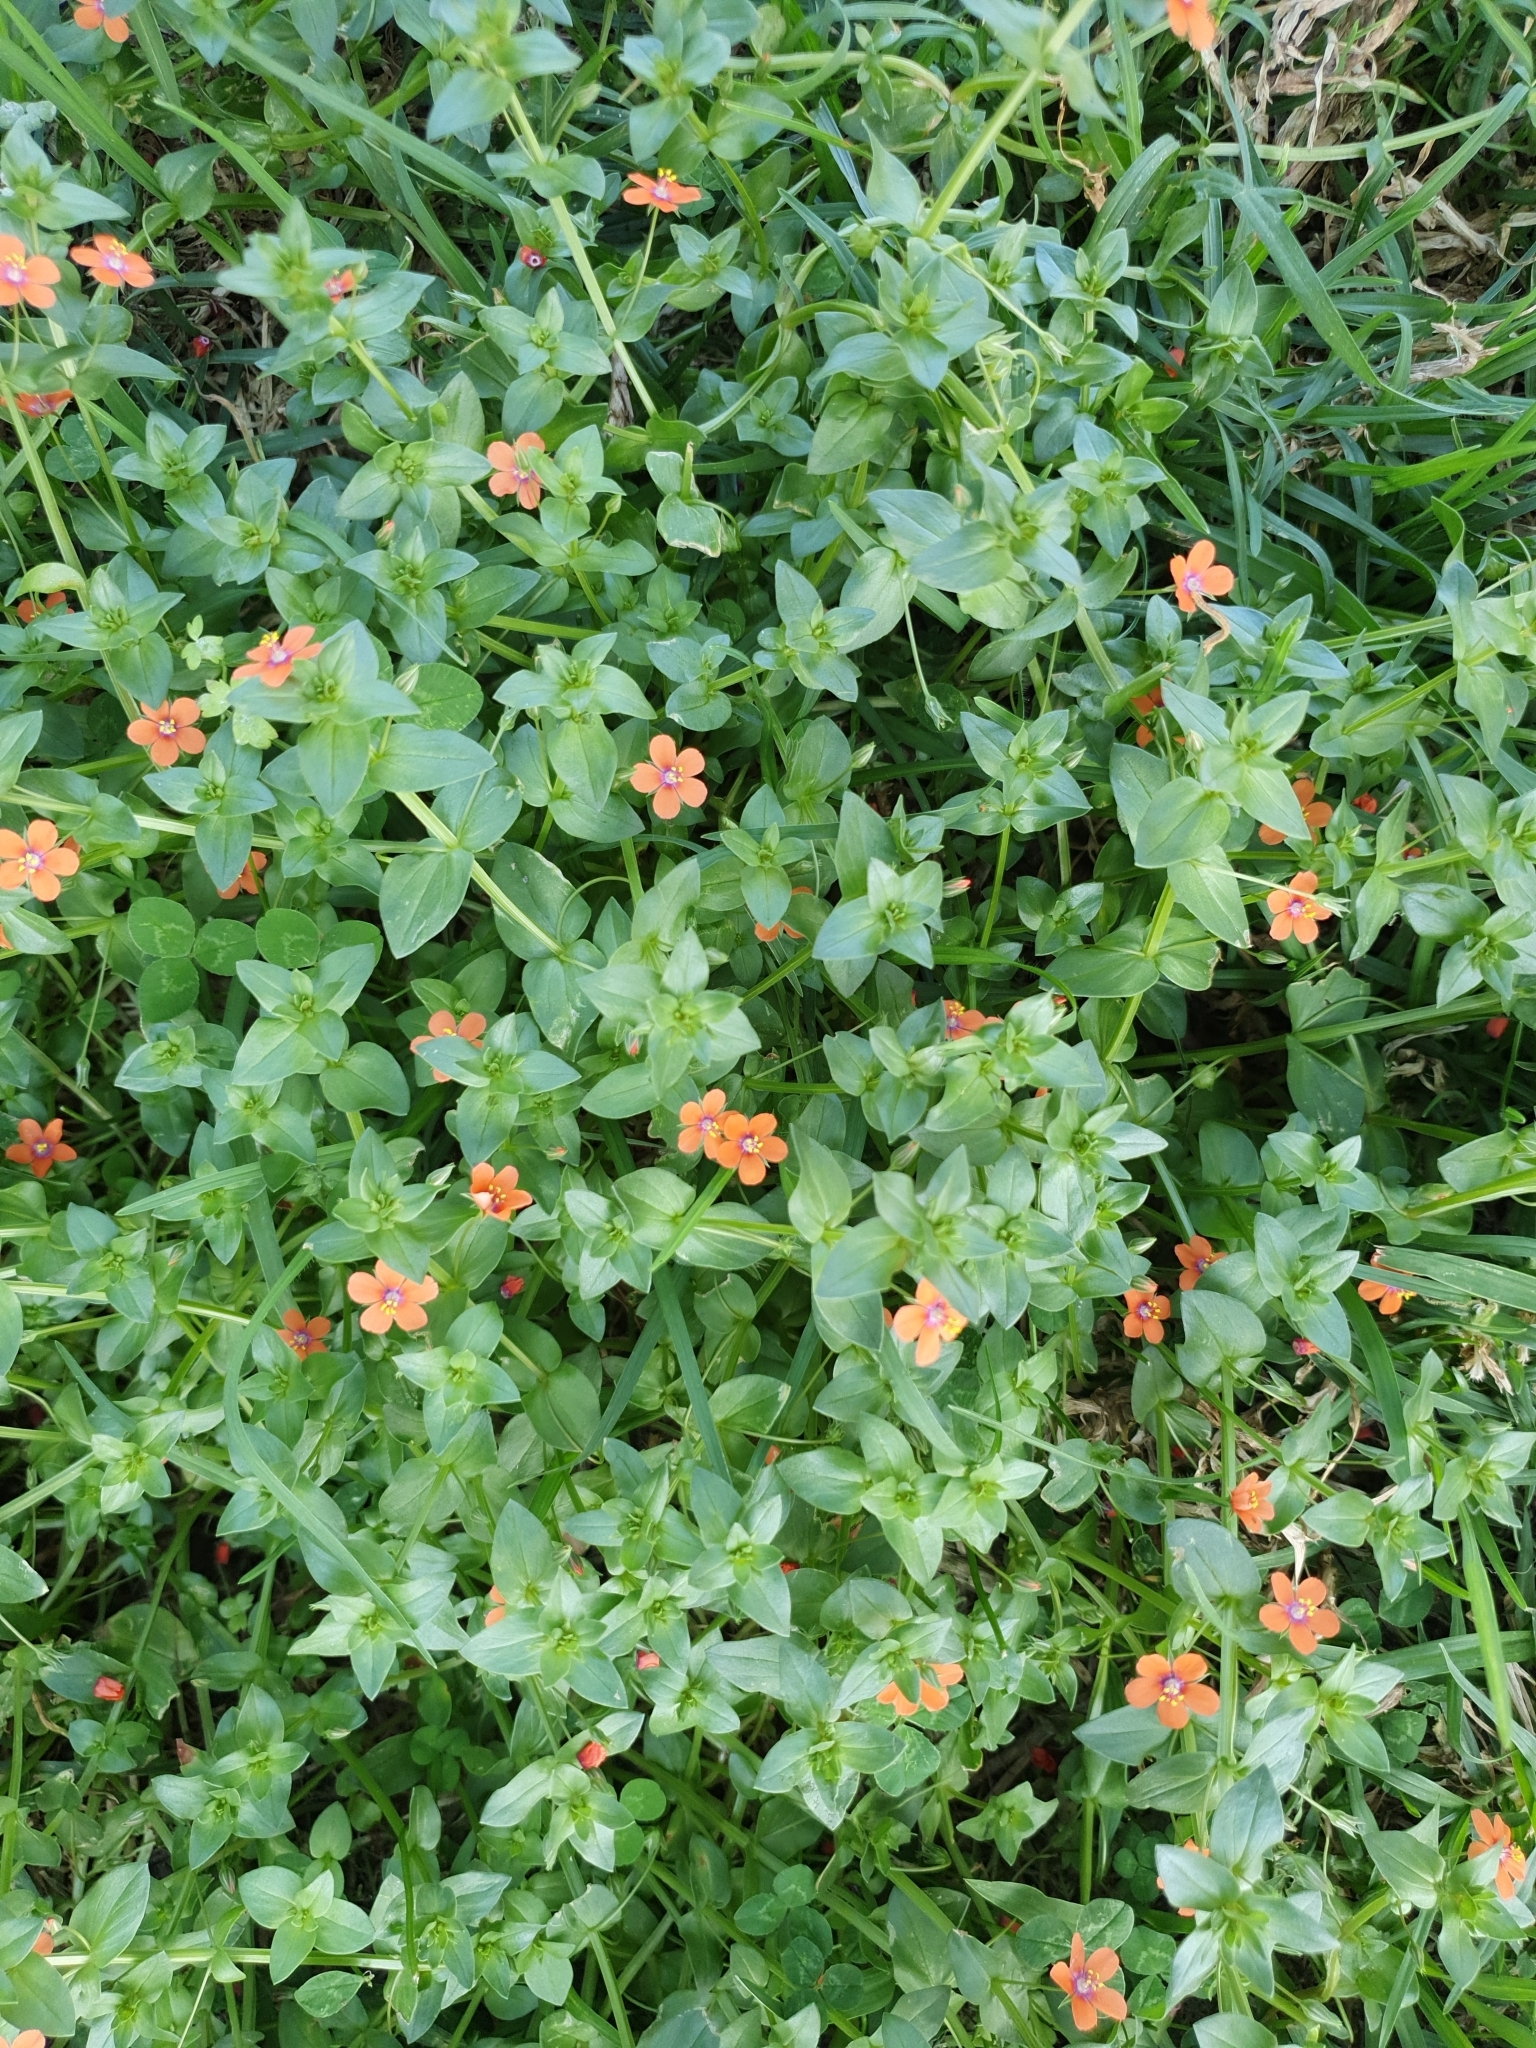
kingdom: Plantae
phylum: Tracheophyta
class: Magnoliopsida
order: Ericales
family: Primulaceae
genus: Lysimachia
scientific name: Lysimachia arvensis
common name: Scarlet pimpernel
